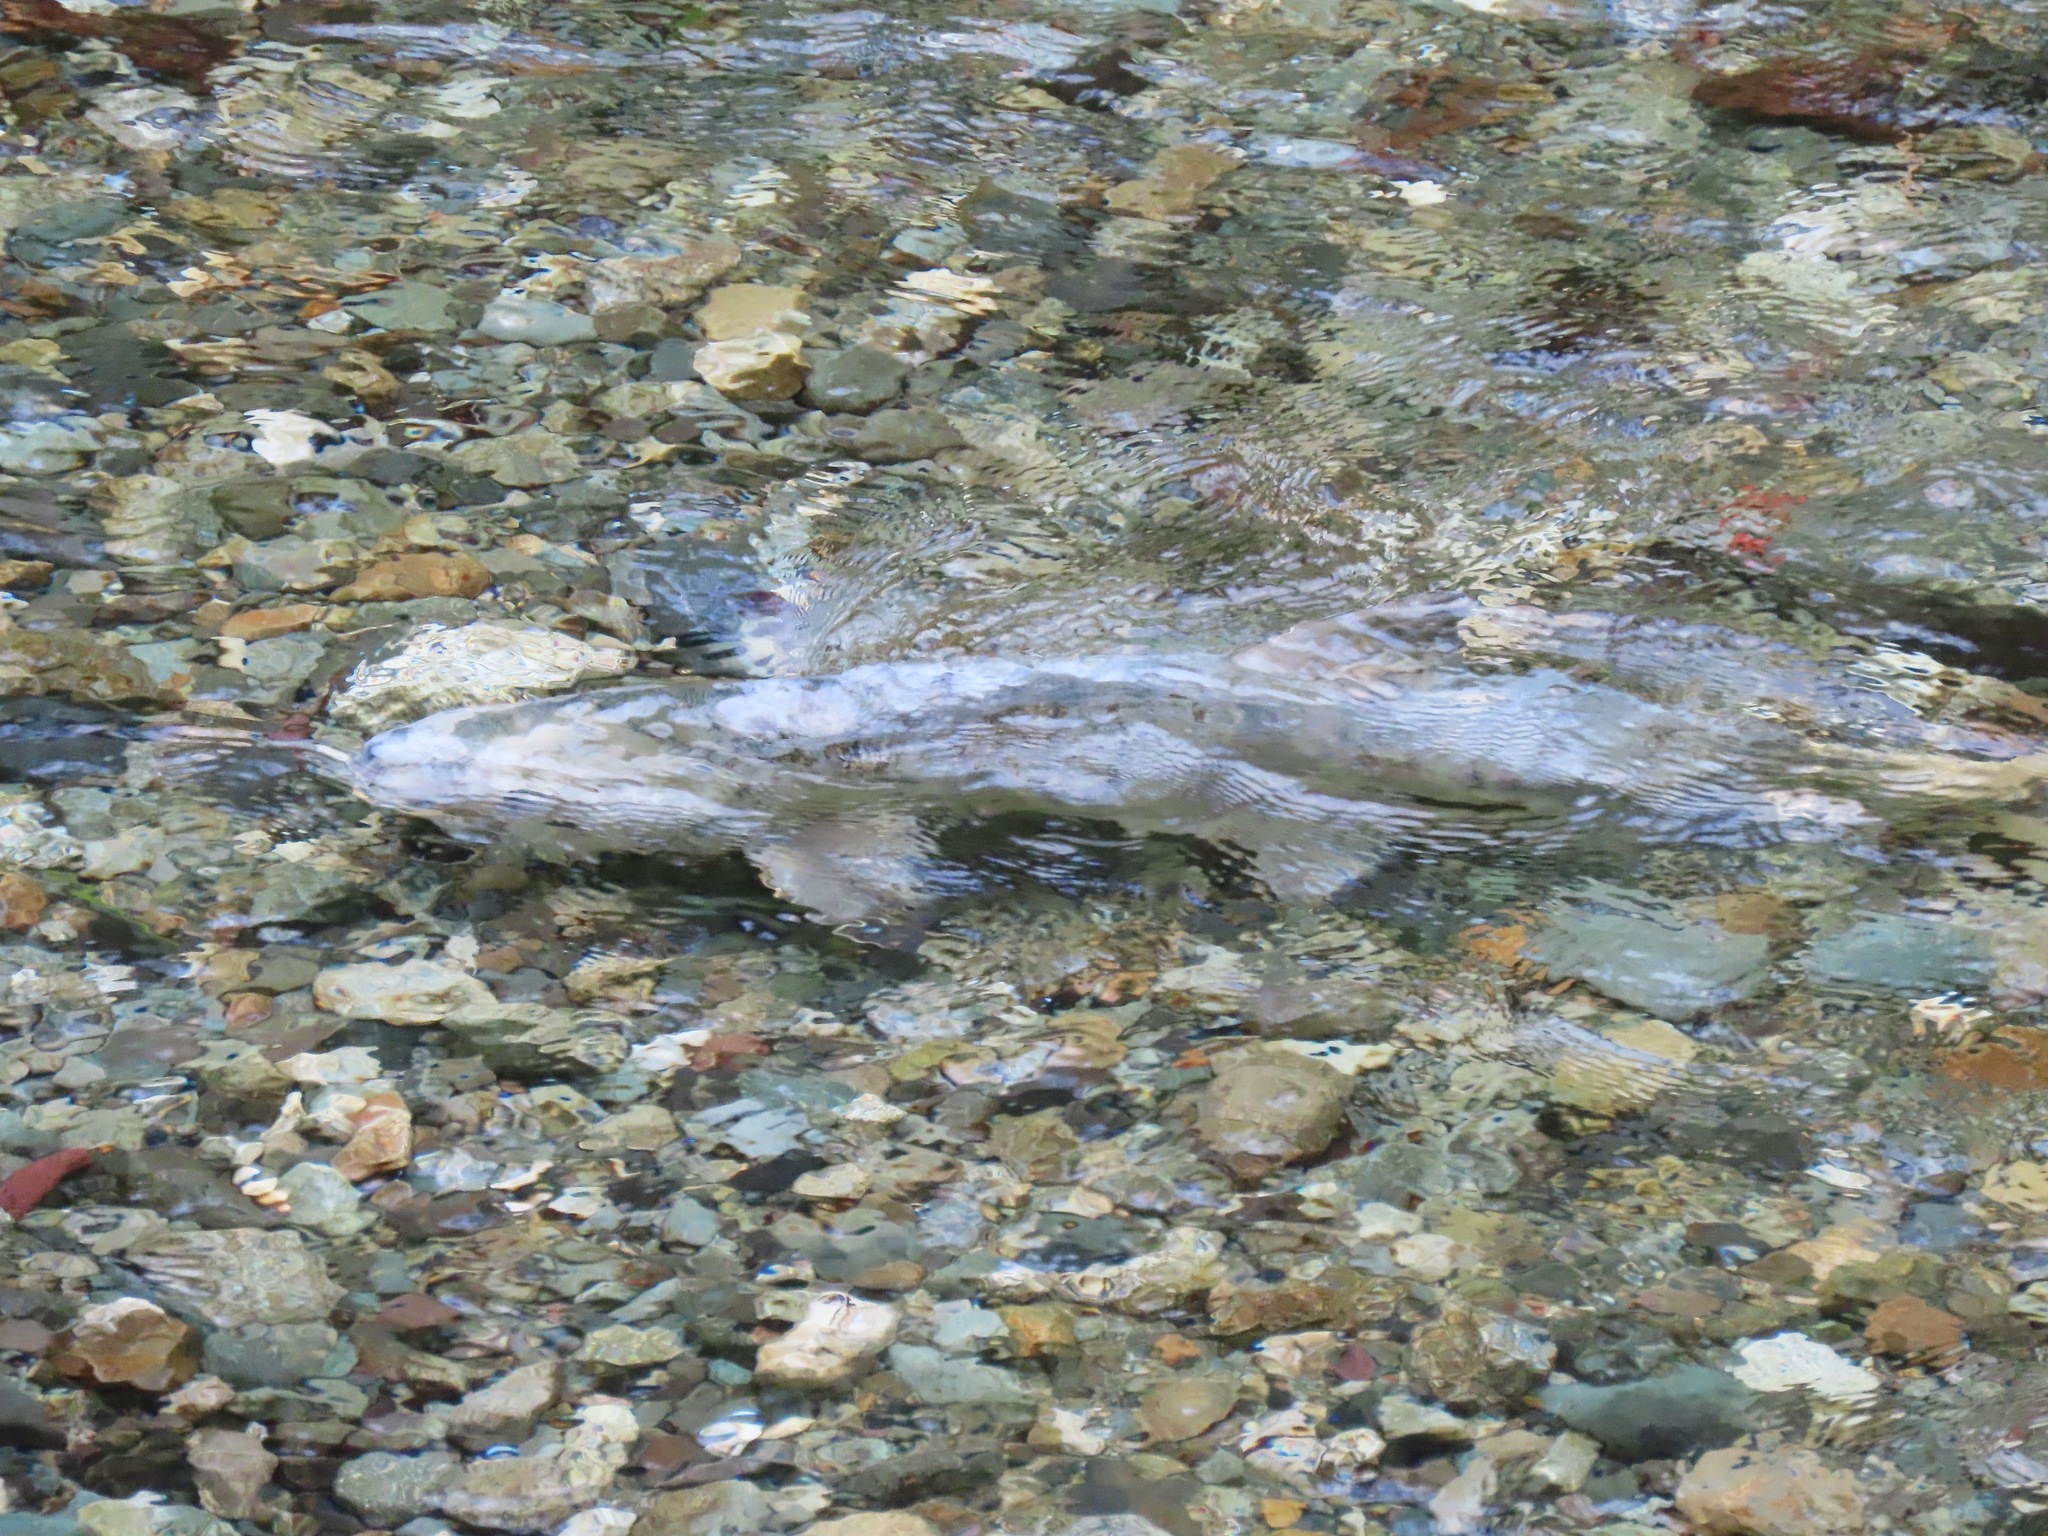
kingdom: Animalia
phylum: Chordata
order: Salmoniformes
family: Salmonidae
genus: Oncorhynchus
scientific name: Oncorhynchus keta
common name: Chum salmon
